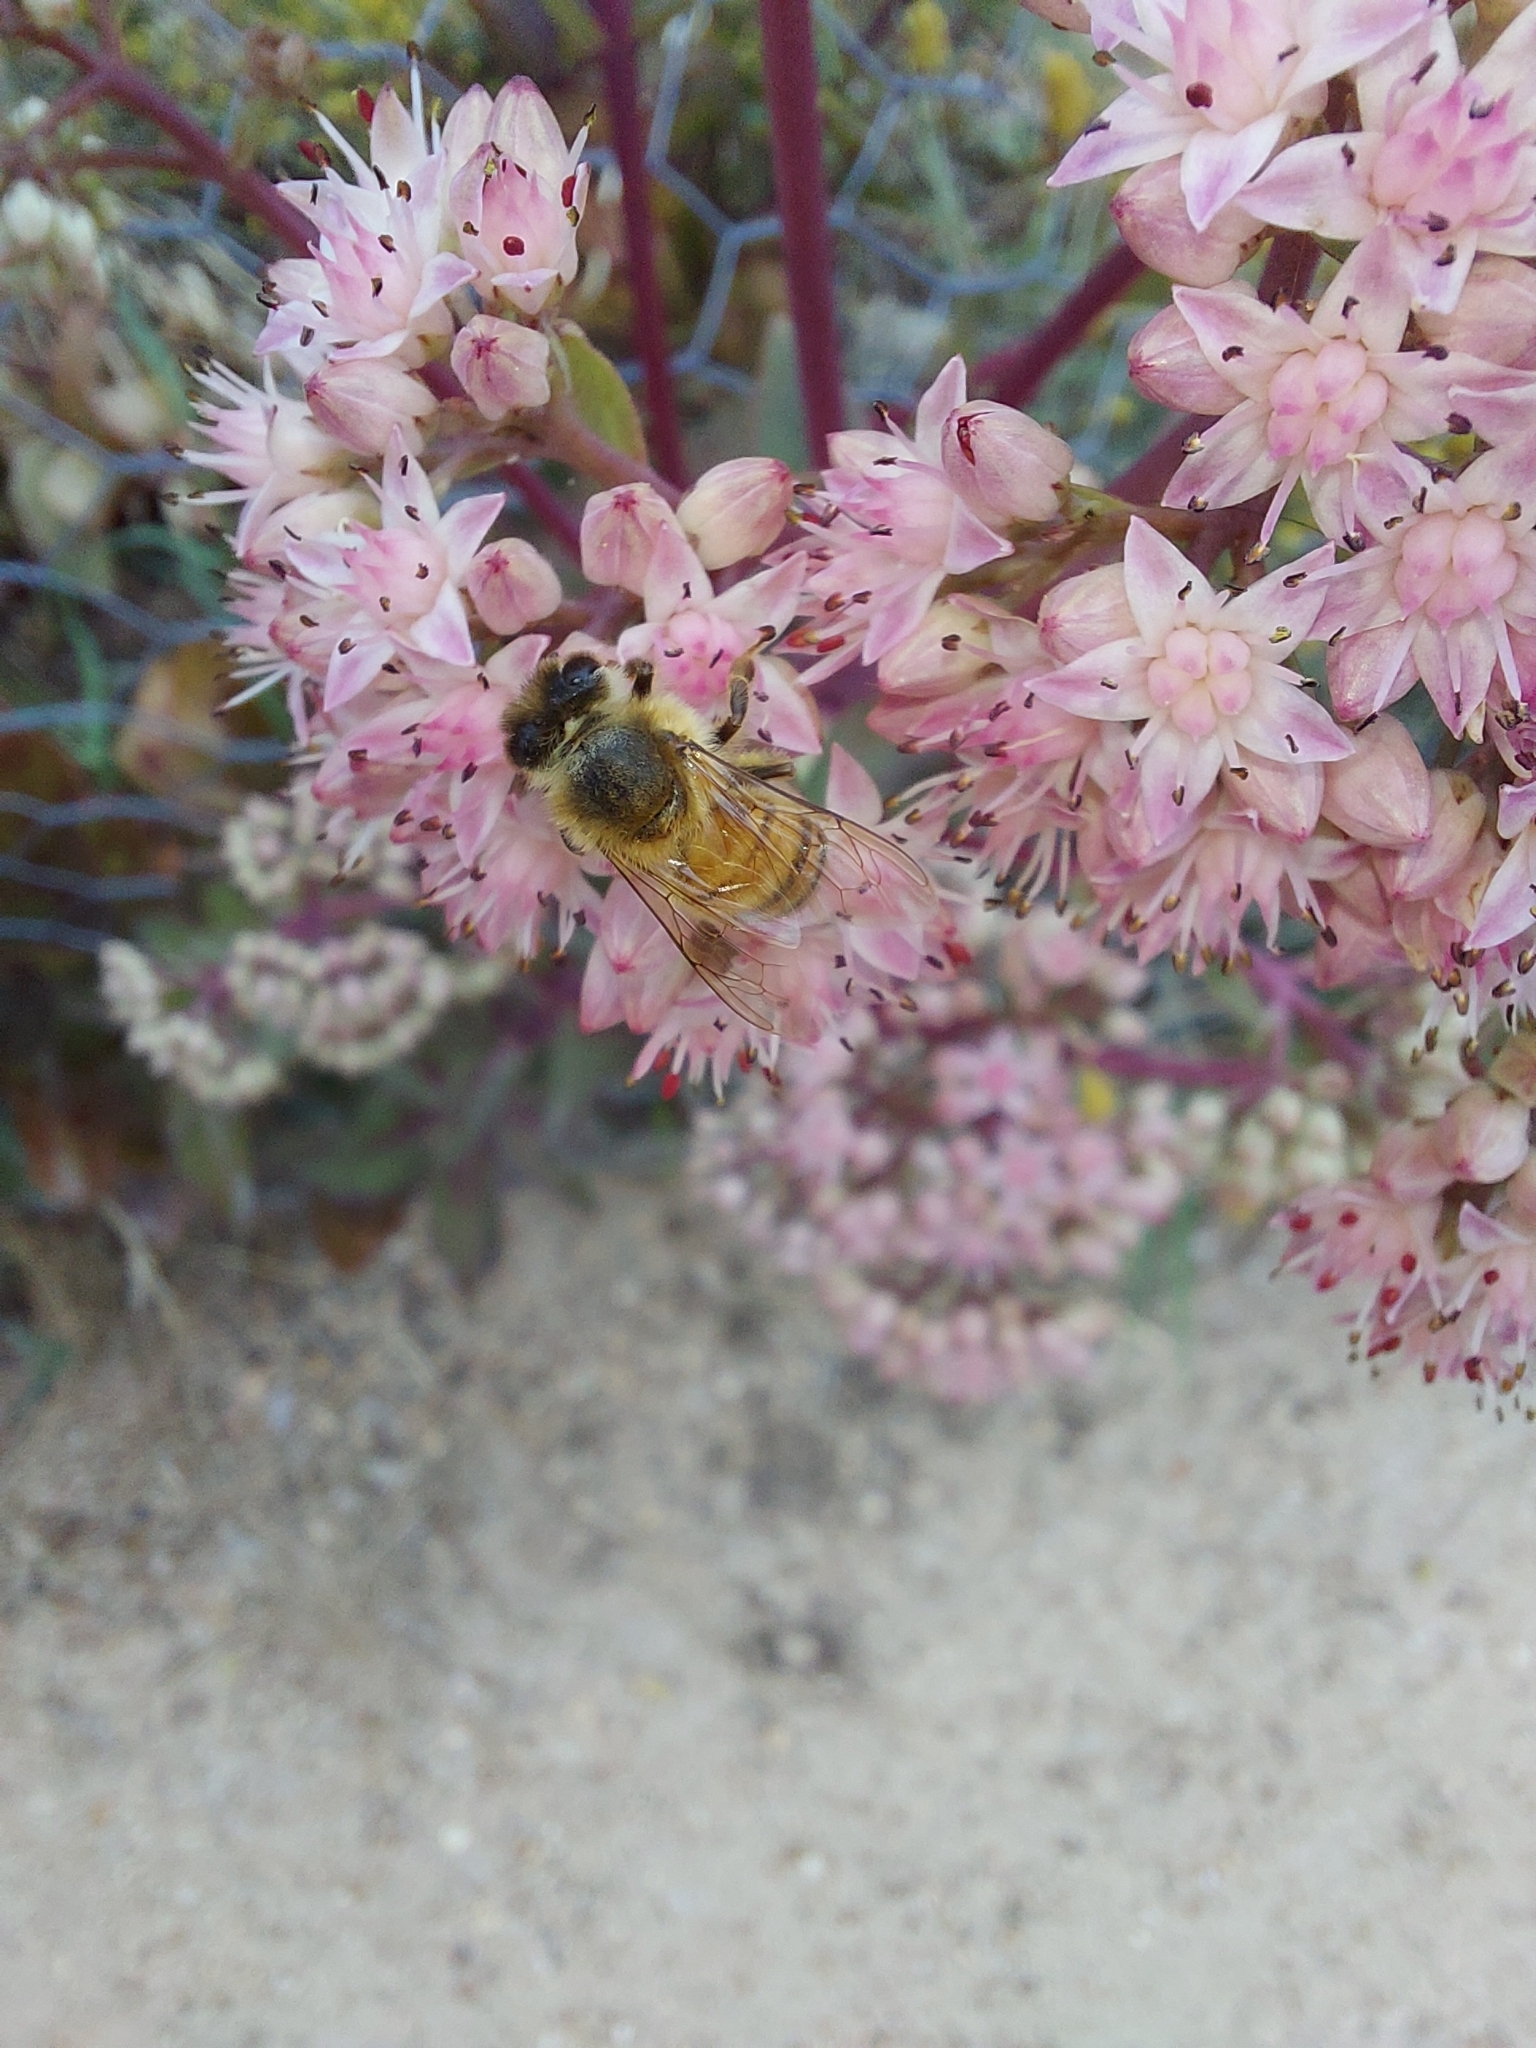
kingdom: Animalia
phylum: Arthropoda
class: Insecta
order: Hymenoptera
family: Apidae
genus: Apis
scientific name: Apis mellifera
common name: Honey bee
